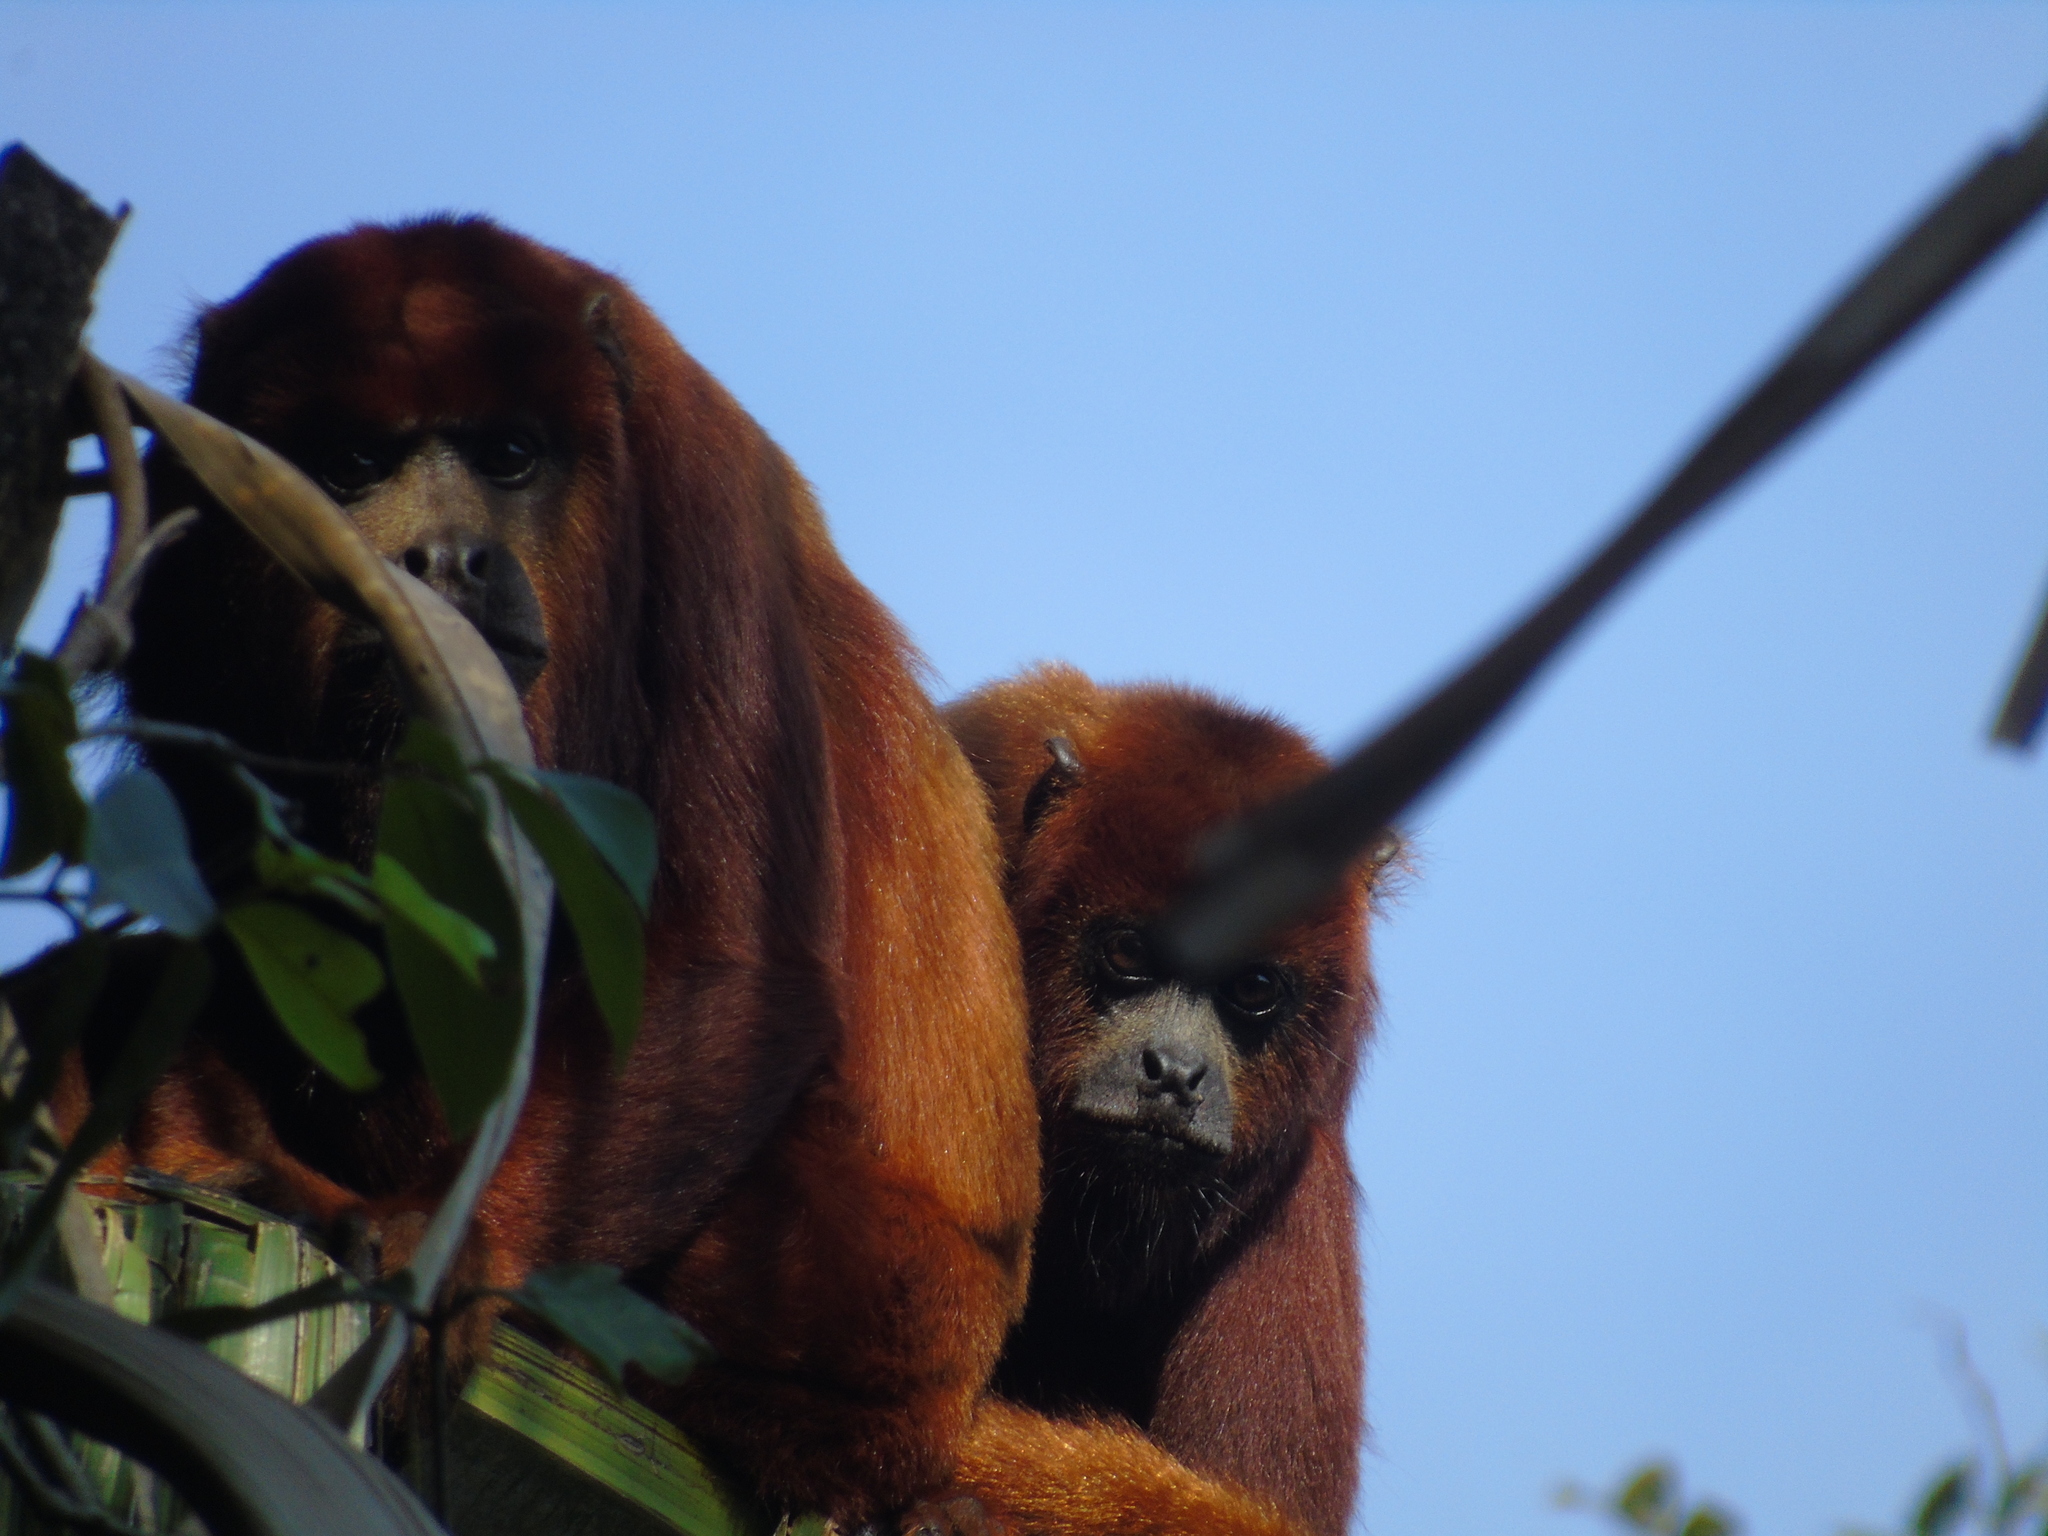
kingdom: Animalia
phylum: Chordata
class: Mammalia
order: Primates
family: Atelidae
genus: Alouatta
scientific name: Alouatta seniculus
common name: Venezuelan red howler
